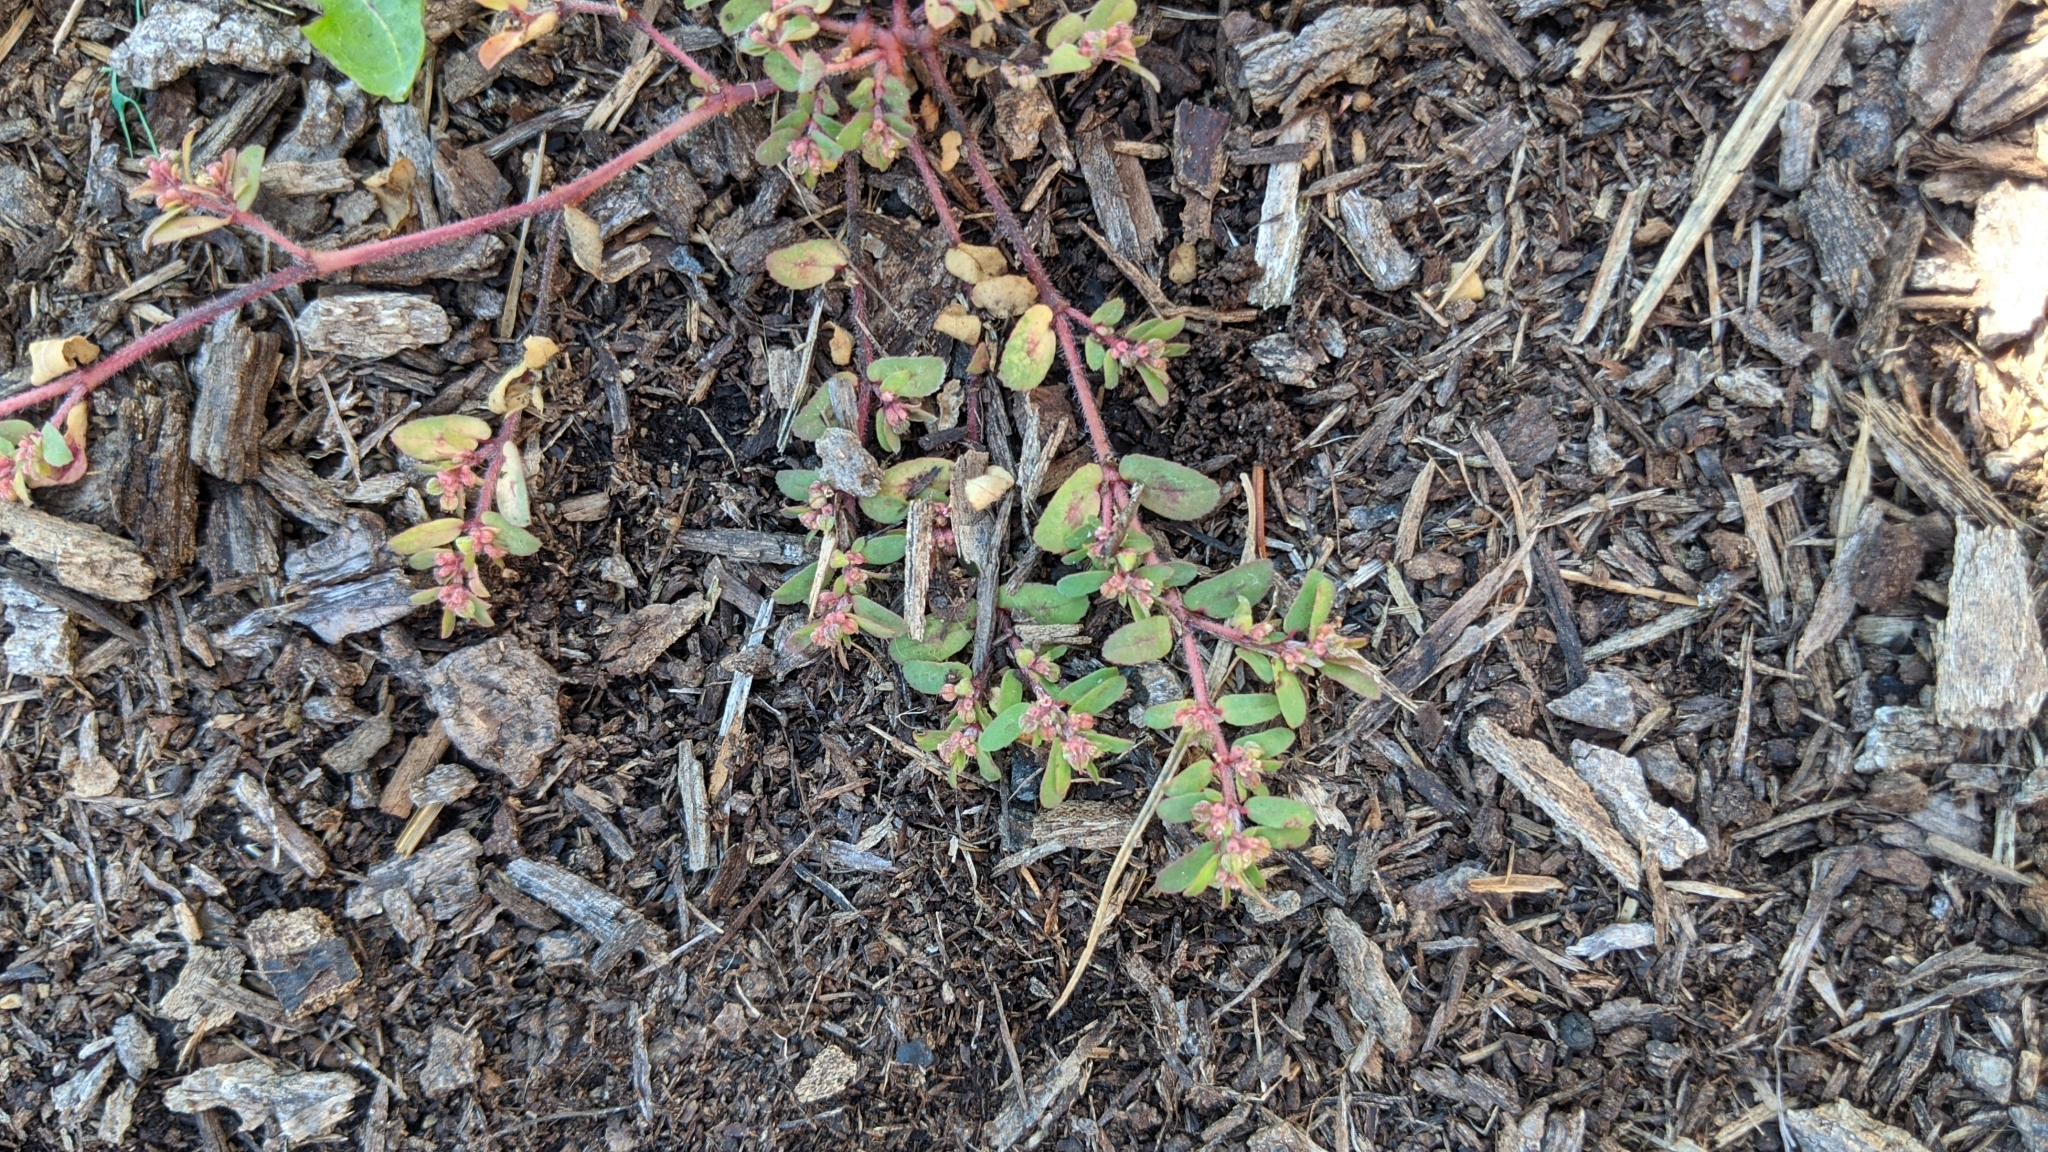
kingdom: Plantae
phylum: Tracheophyta
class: Magnoliopsida
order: Malpighiales
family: Euphorbiaceae
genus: Euphorbia
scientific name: Euphorbia maculata
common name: Spotted spurge
